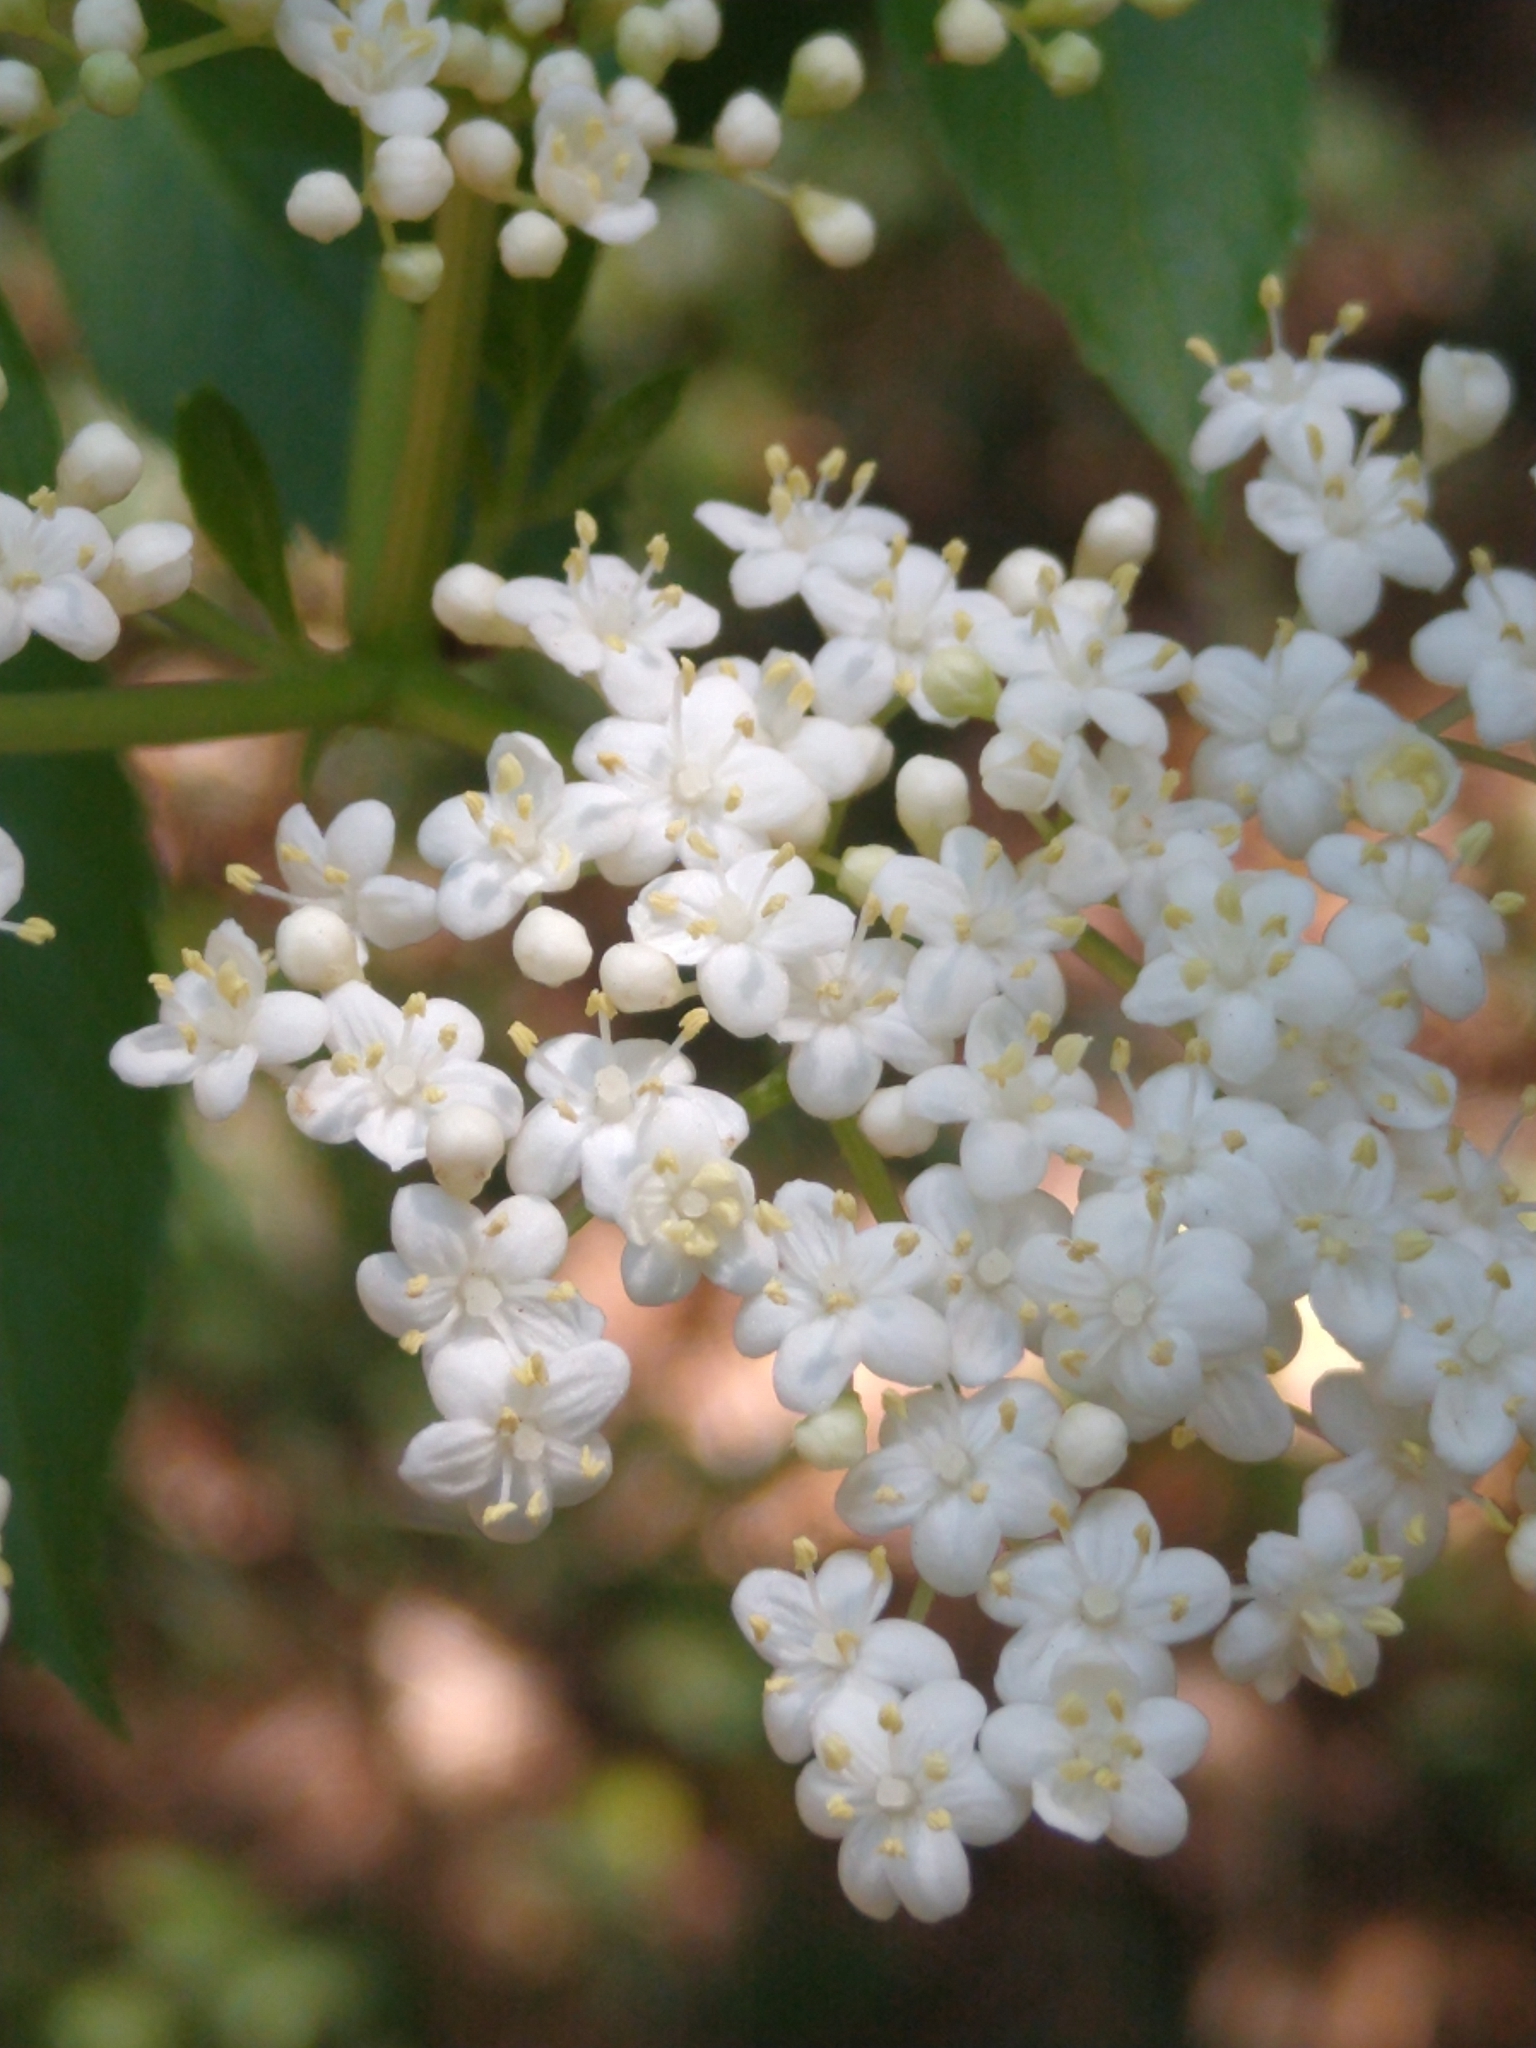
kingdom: Plantae
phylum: Tracheophyta
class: Magnoliopsida
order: Dipsacales
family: Viburnaceae
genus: Sambucus
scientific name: Sambucus canadensis
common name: American elder
